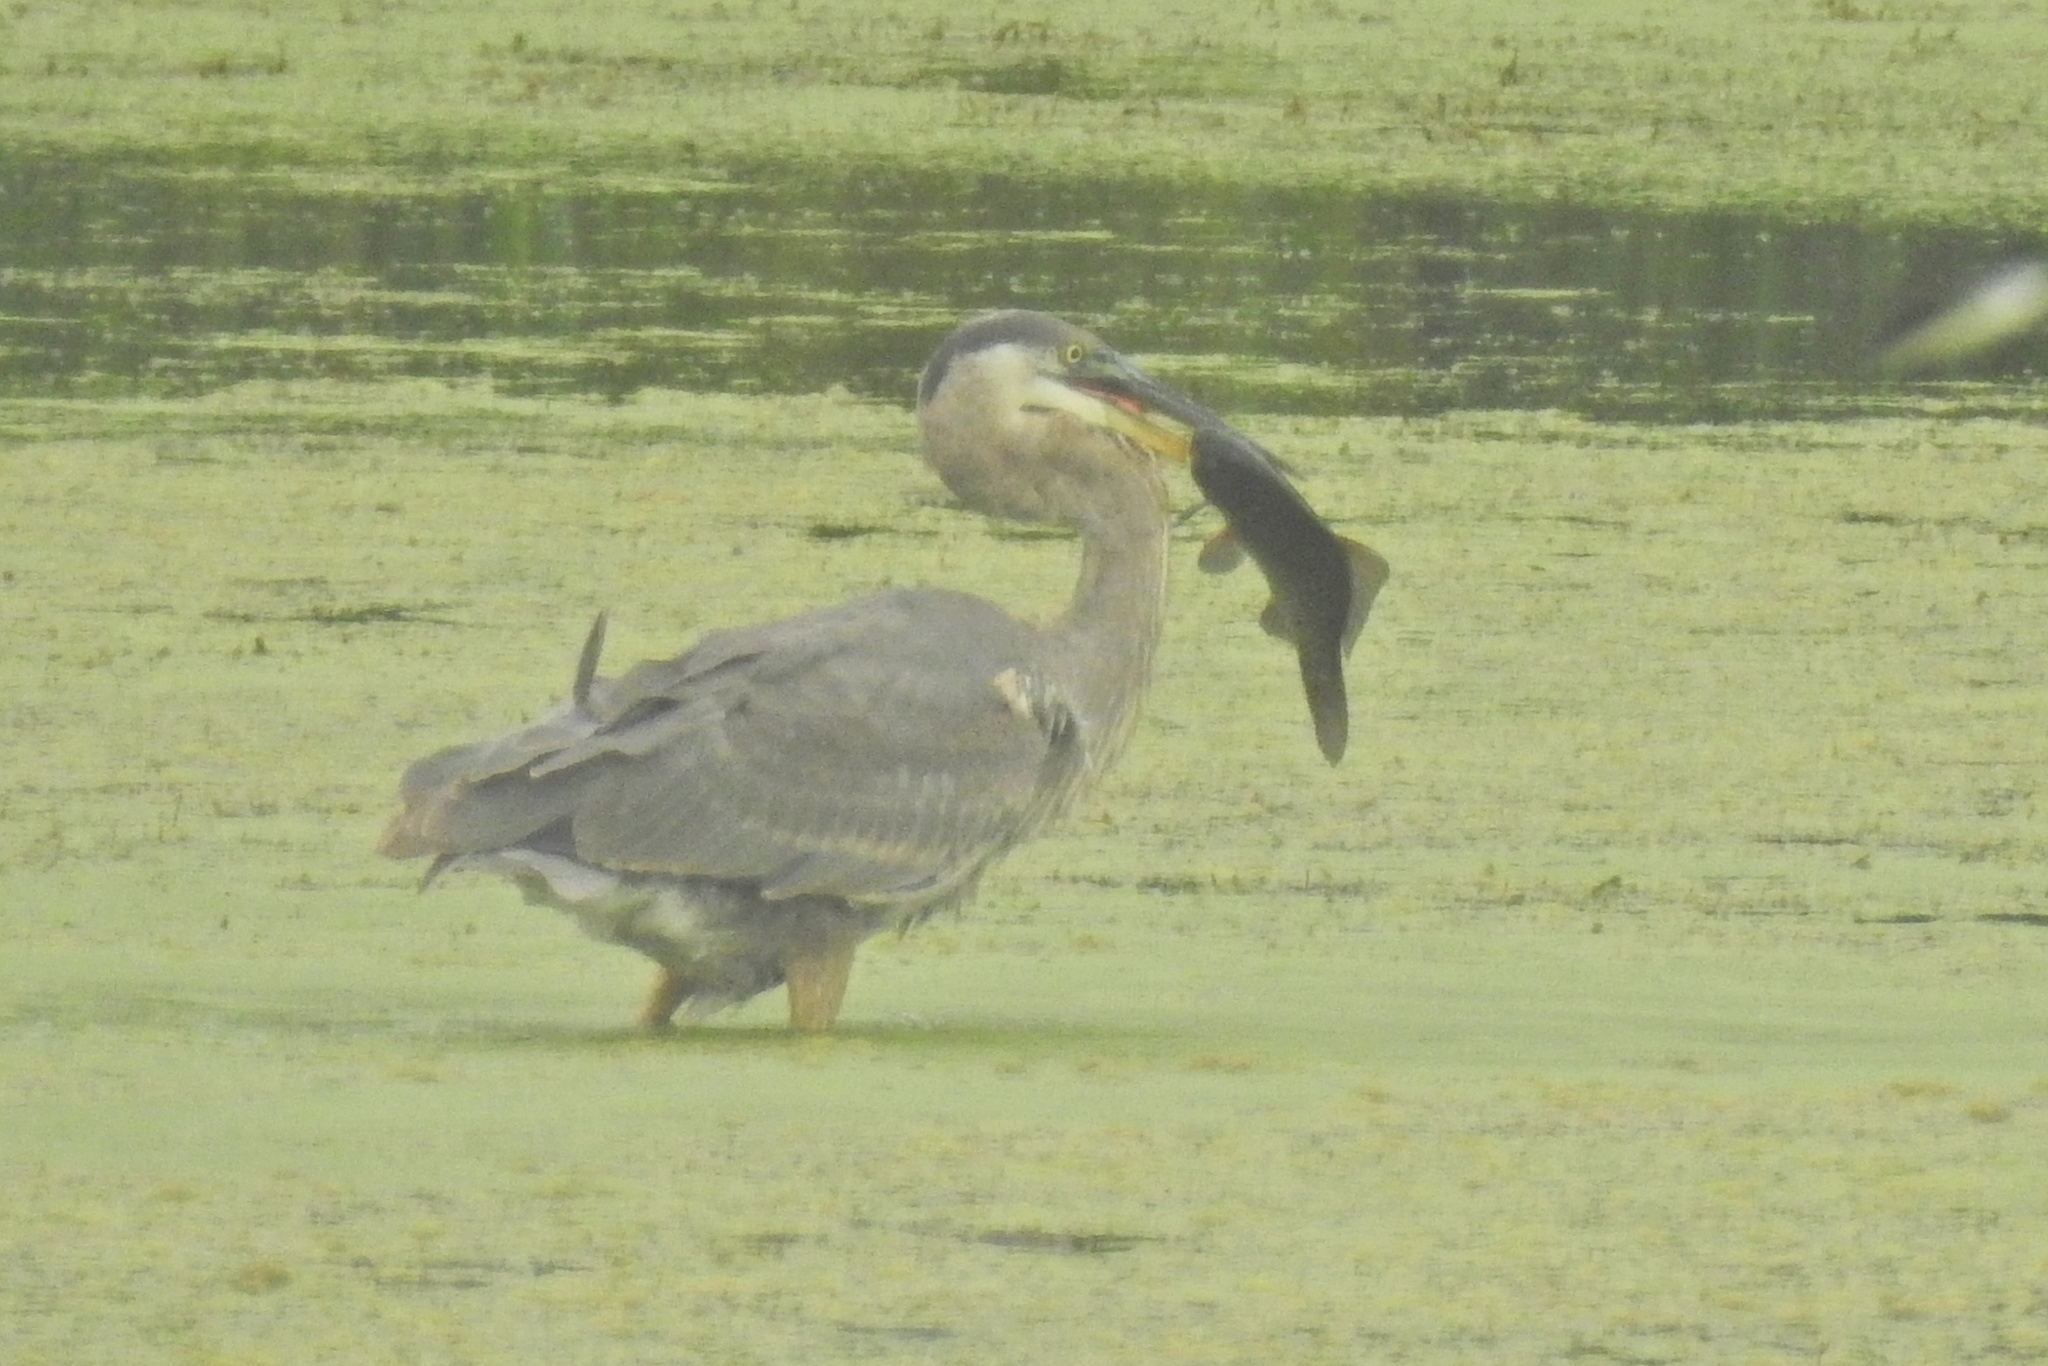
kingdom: Animalia
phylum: Chordata
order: Cypriniformes
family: Cyprinidae
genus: Carassius
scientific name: Carassius auratus
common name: Goldfish
